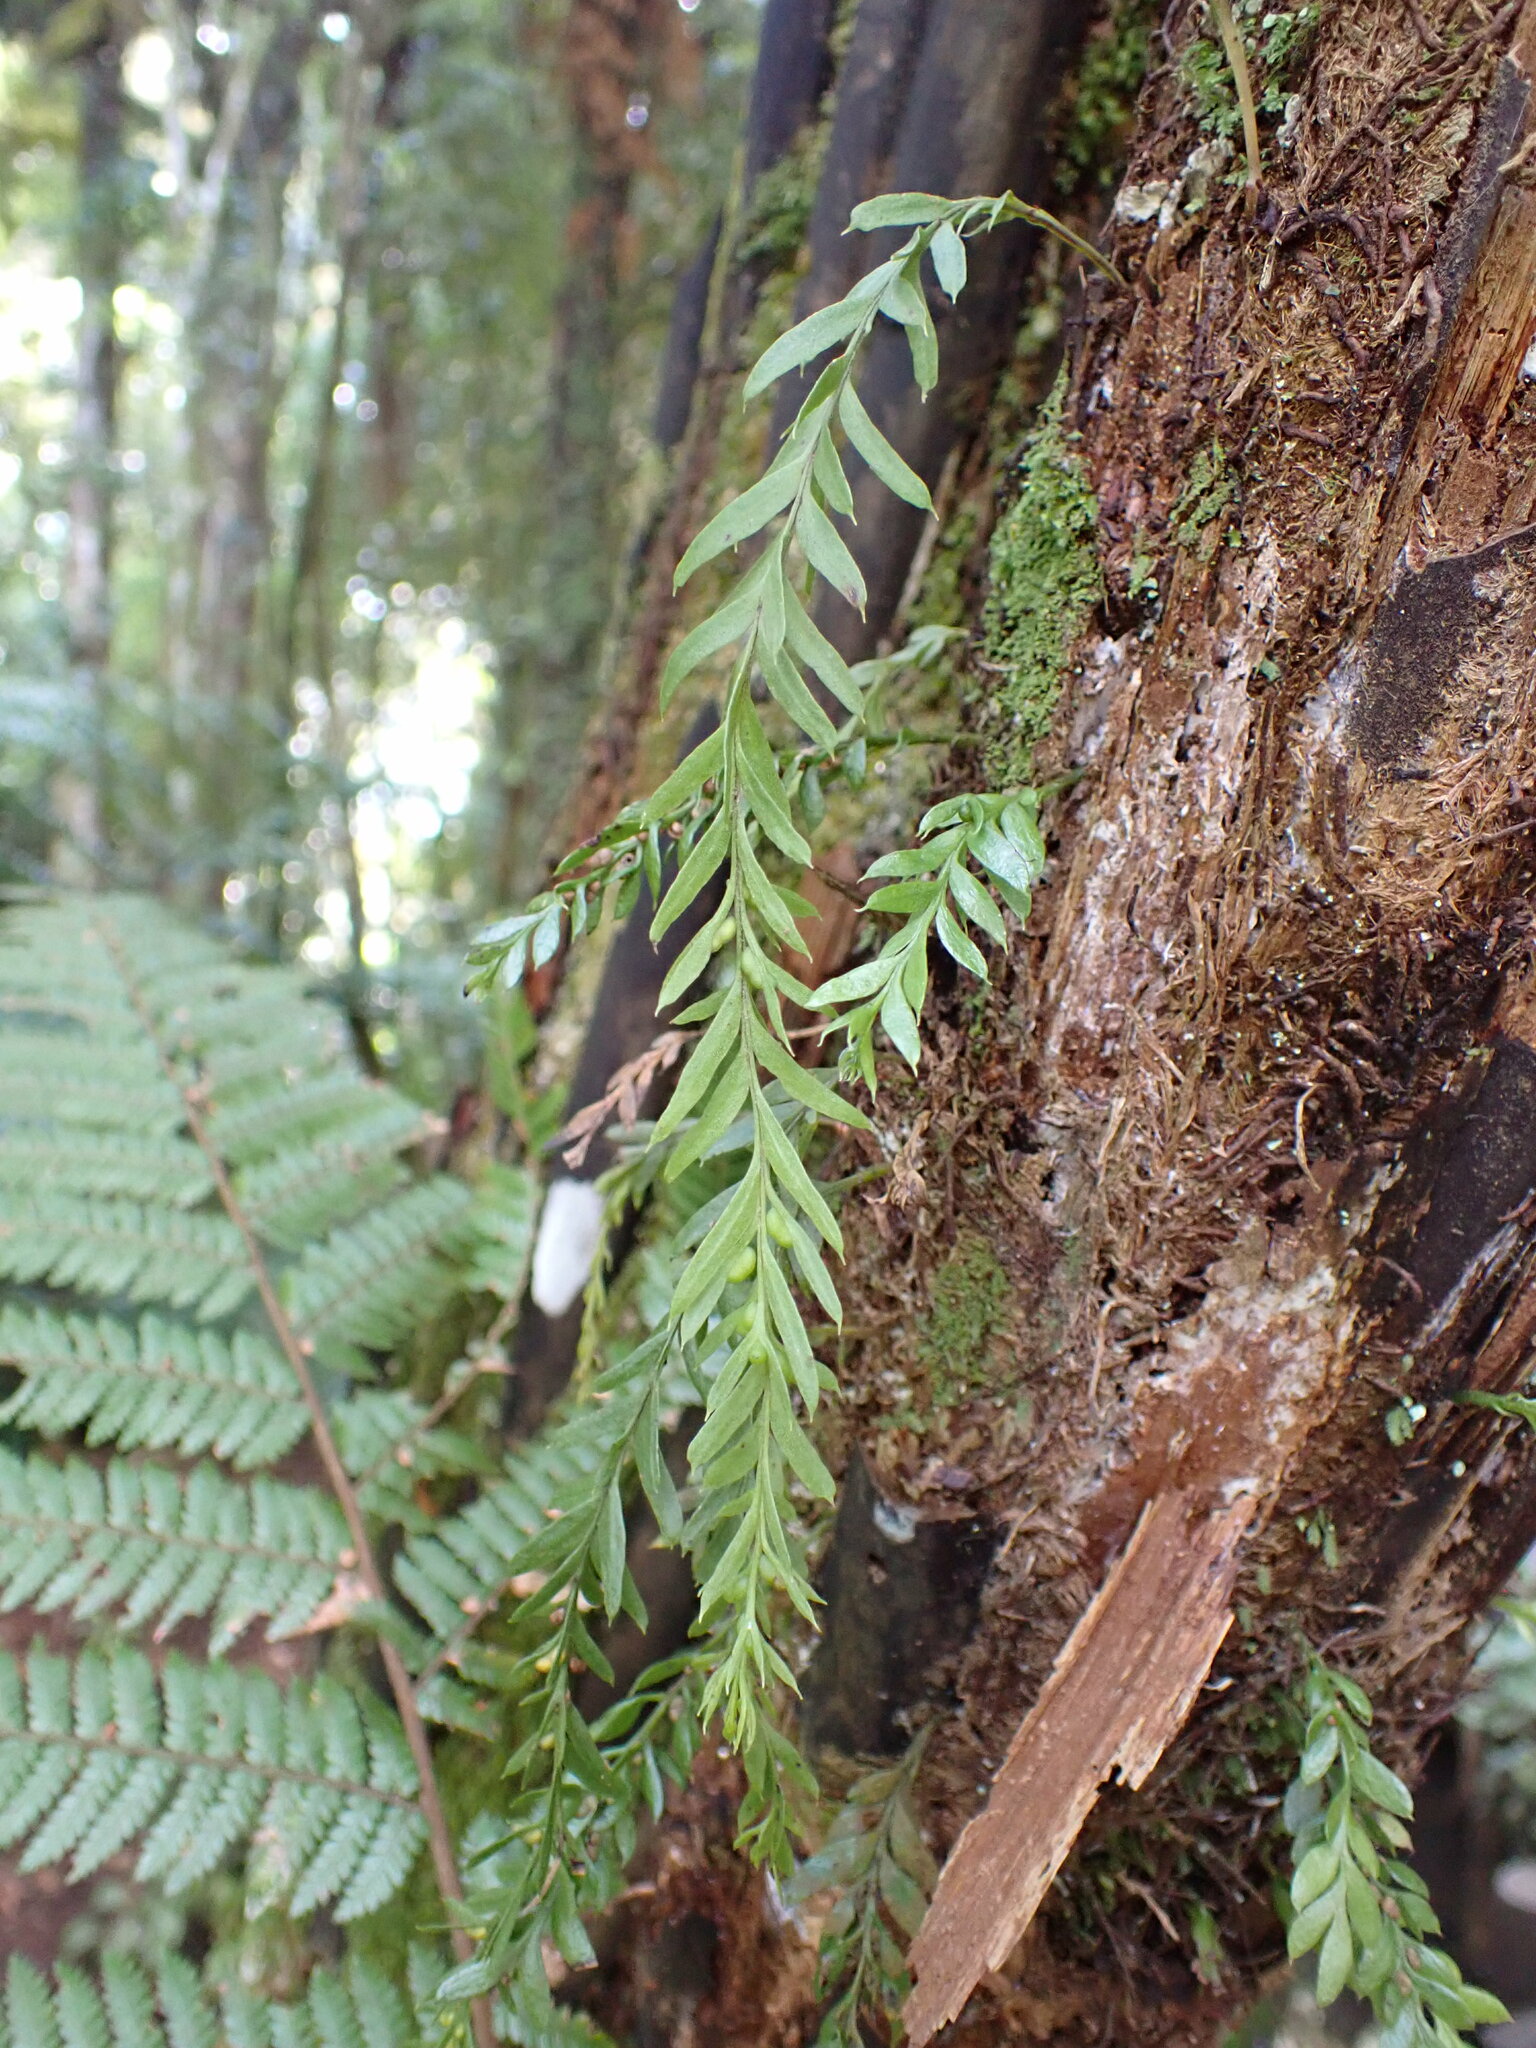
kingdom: Plantae
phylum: Tracheophyta
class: Polypodiopsida
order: Psilotales
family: Psilotaceae
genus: Tmesipteris
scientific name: Tmesipteris elongata
